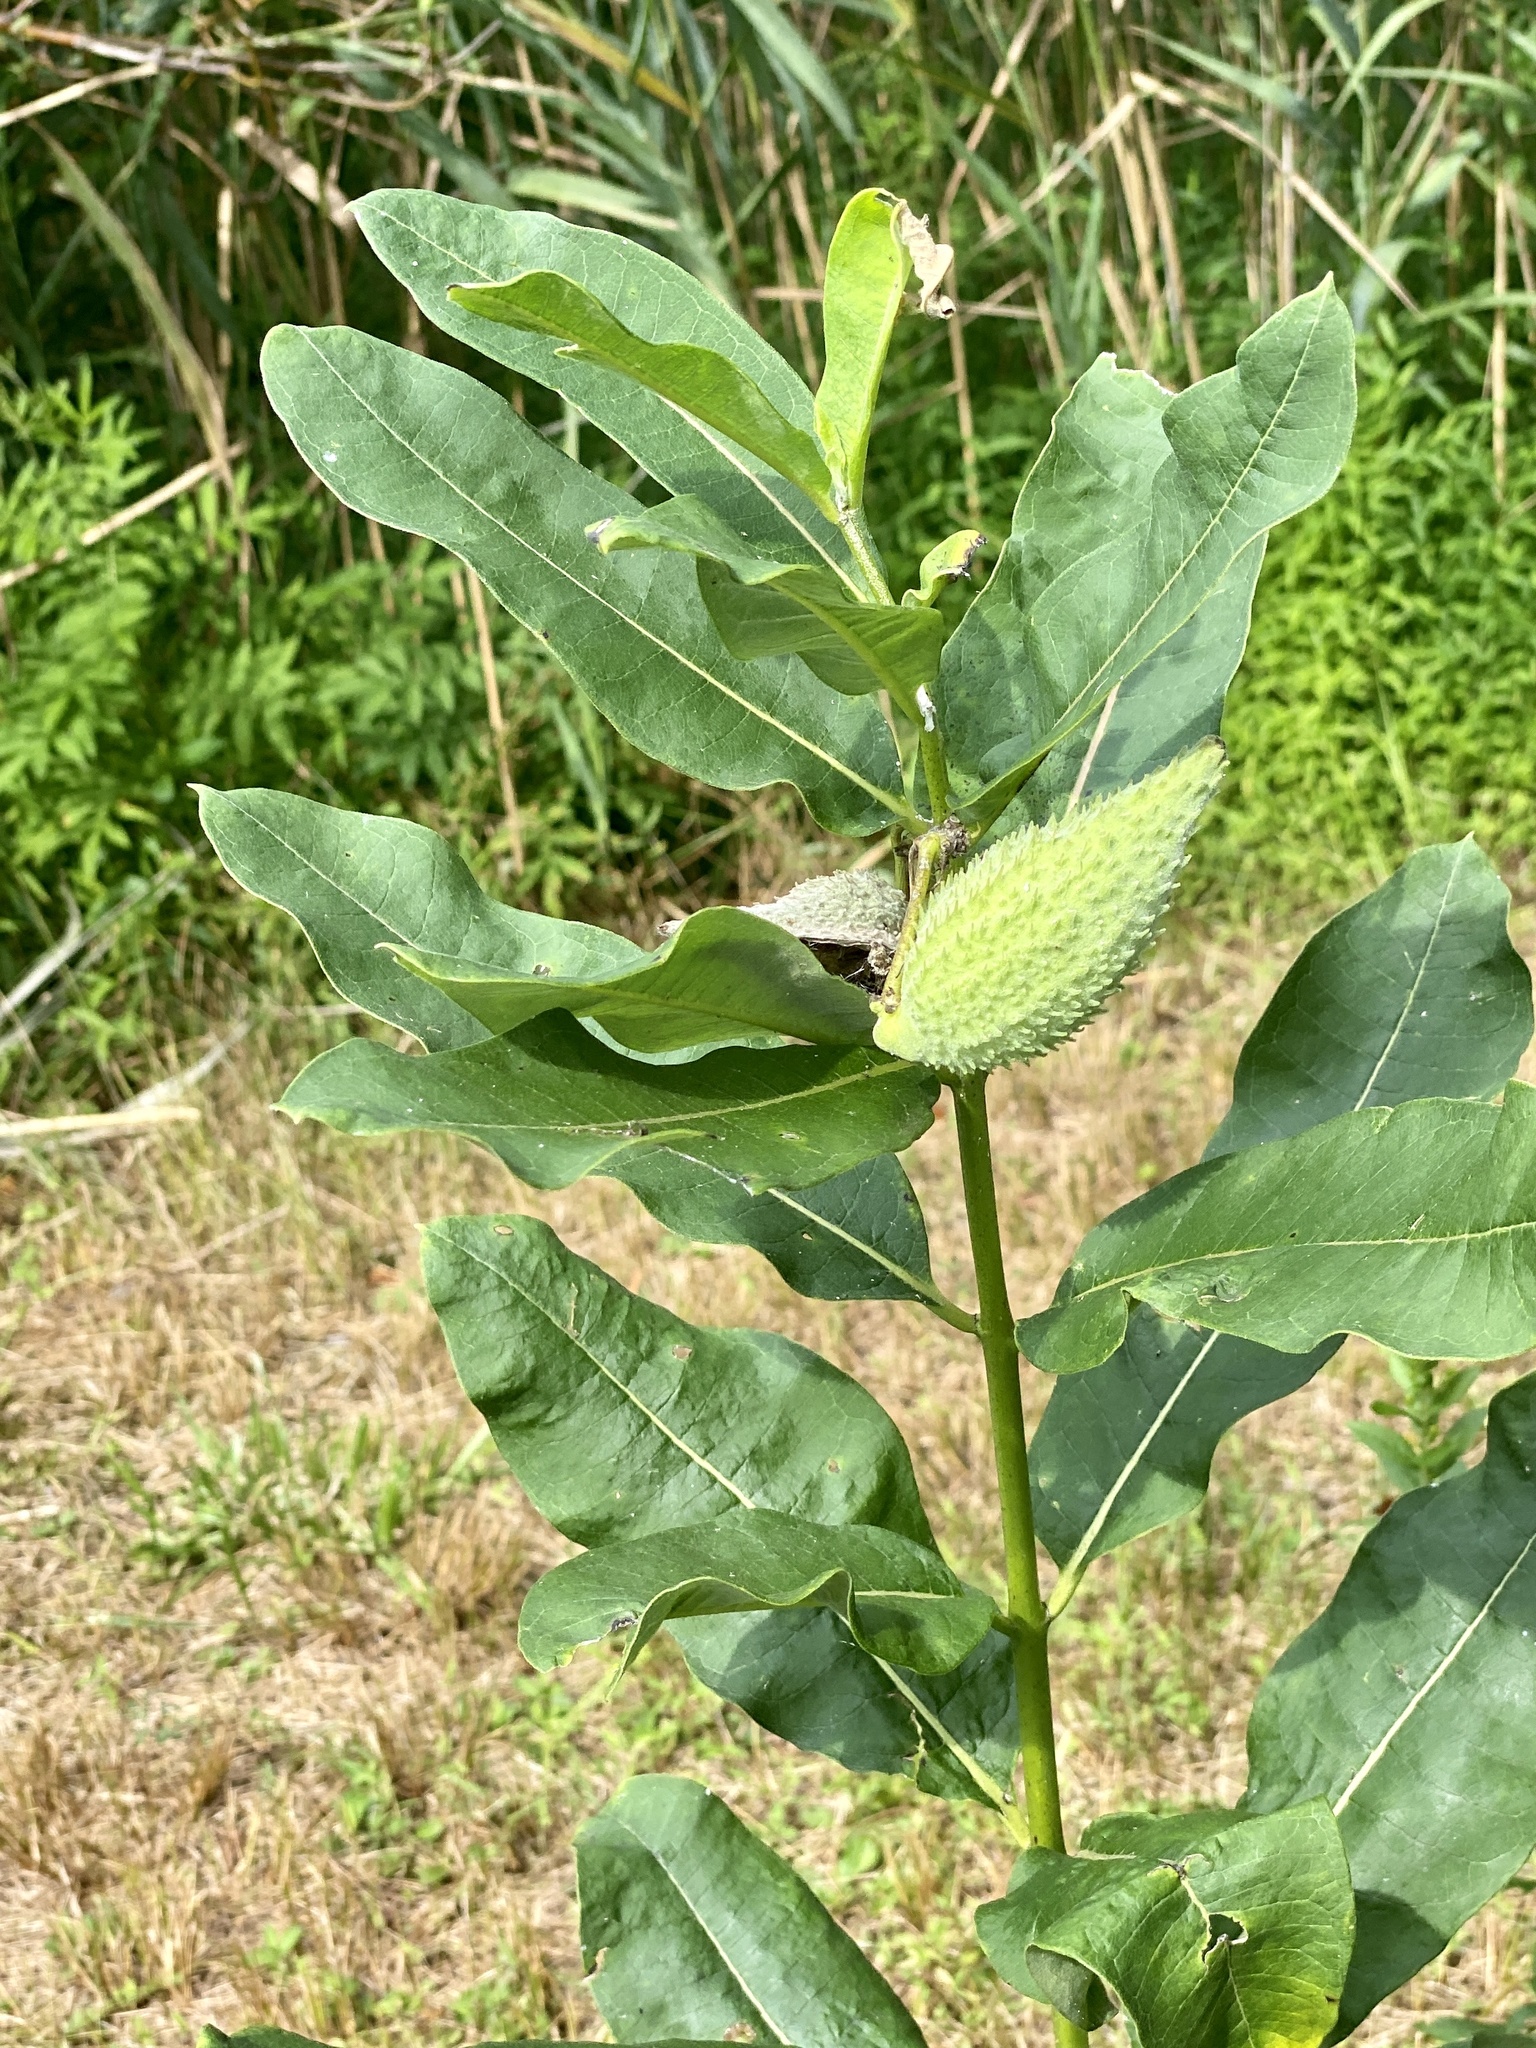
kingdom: Plantae
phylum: Tracheophyta
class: Magnoliopsida
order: Gentianales
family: Apocynaceae
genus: Asclepias
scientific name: Asclepias syriaca
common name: Common milkweed
